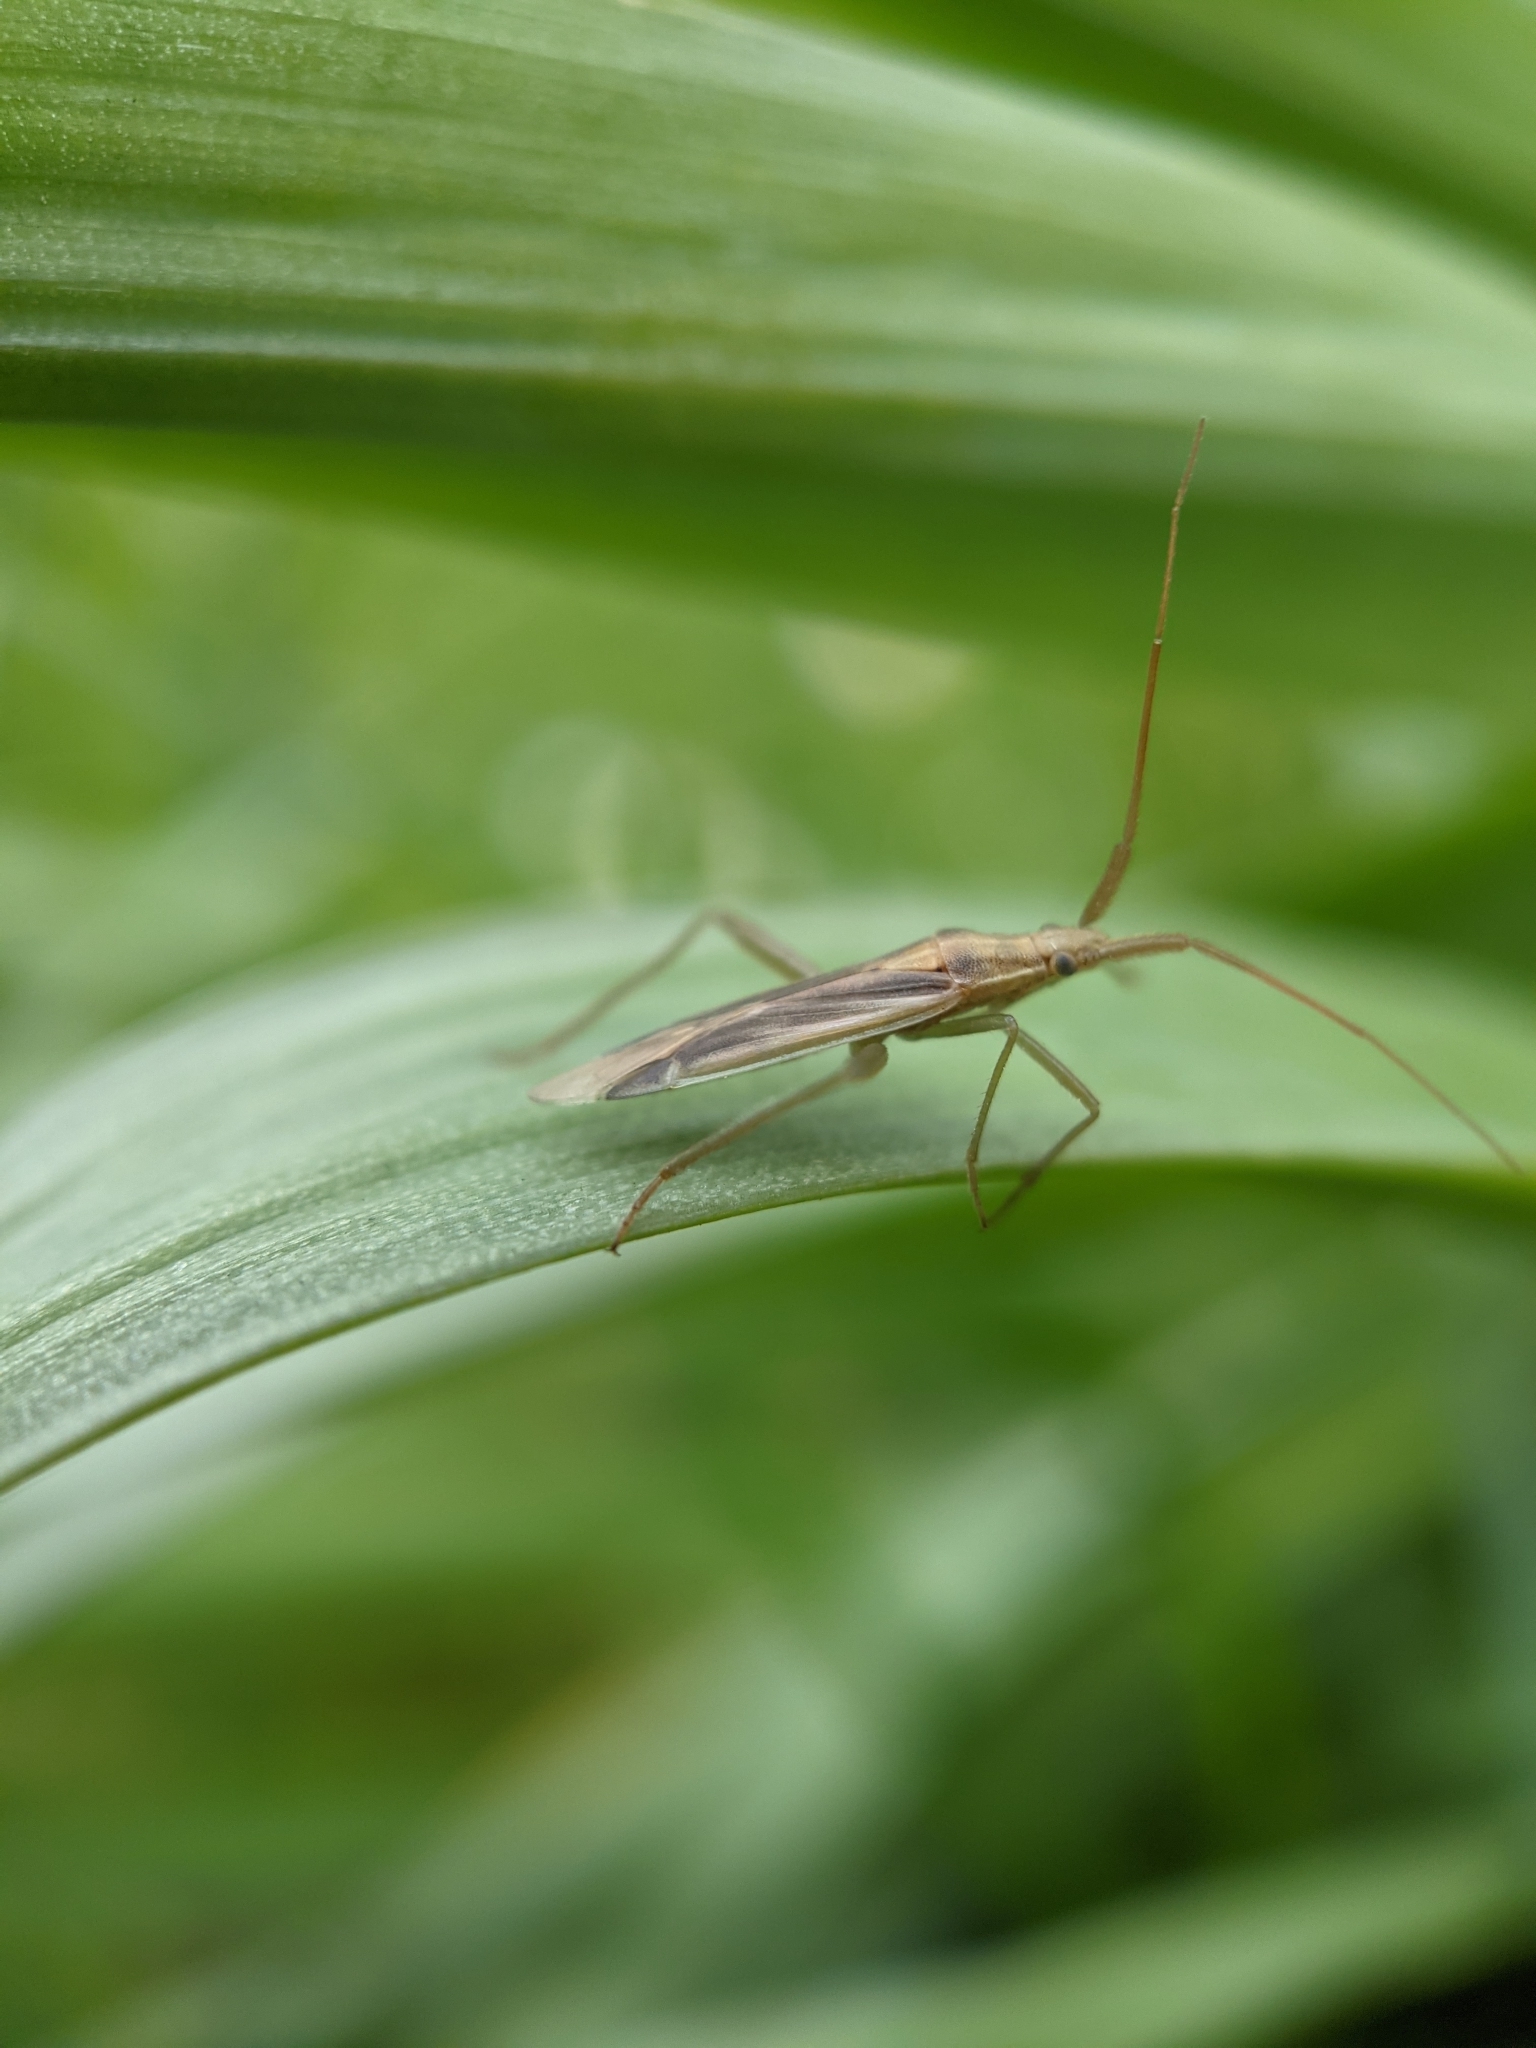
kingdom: Animalia
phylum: Arthropoda
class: Insecta
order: Hemiptera
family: Miridae
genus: Stenodema
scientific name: Stenodema laevigata
